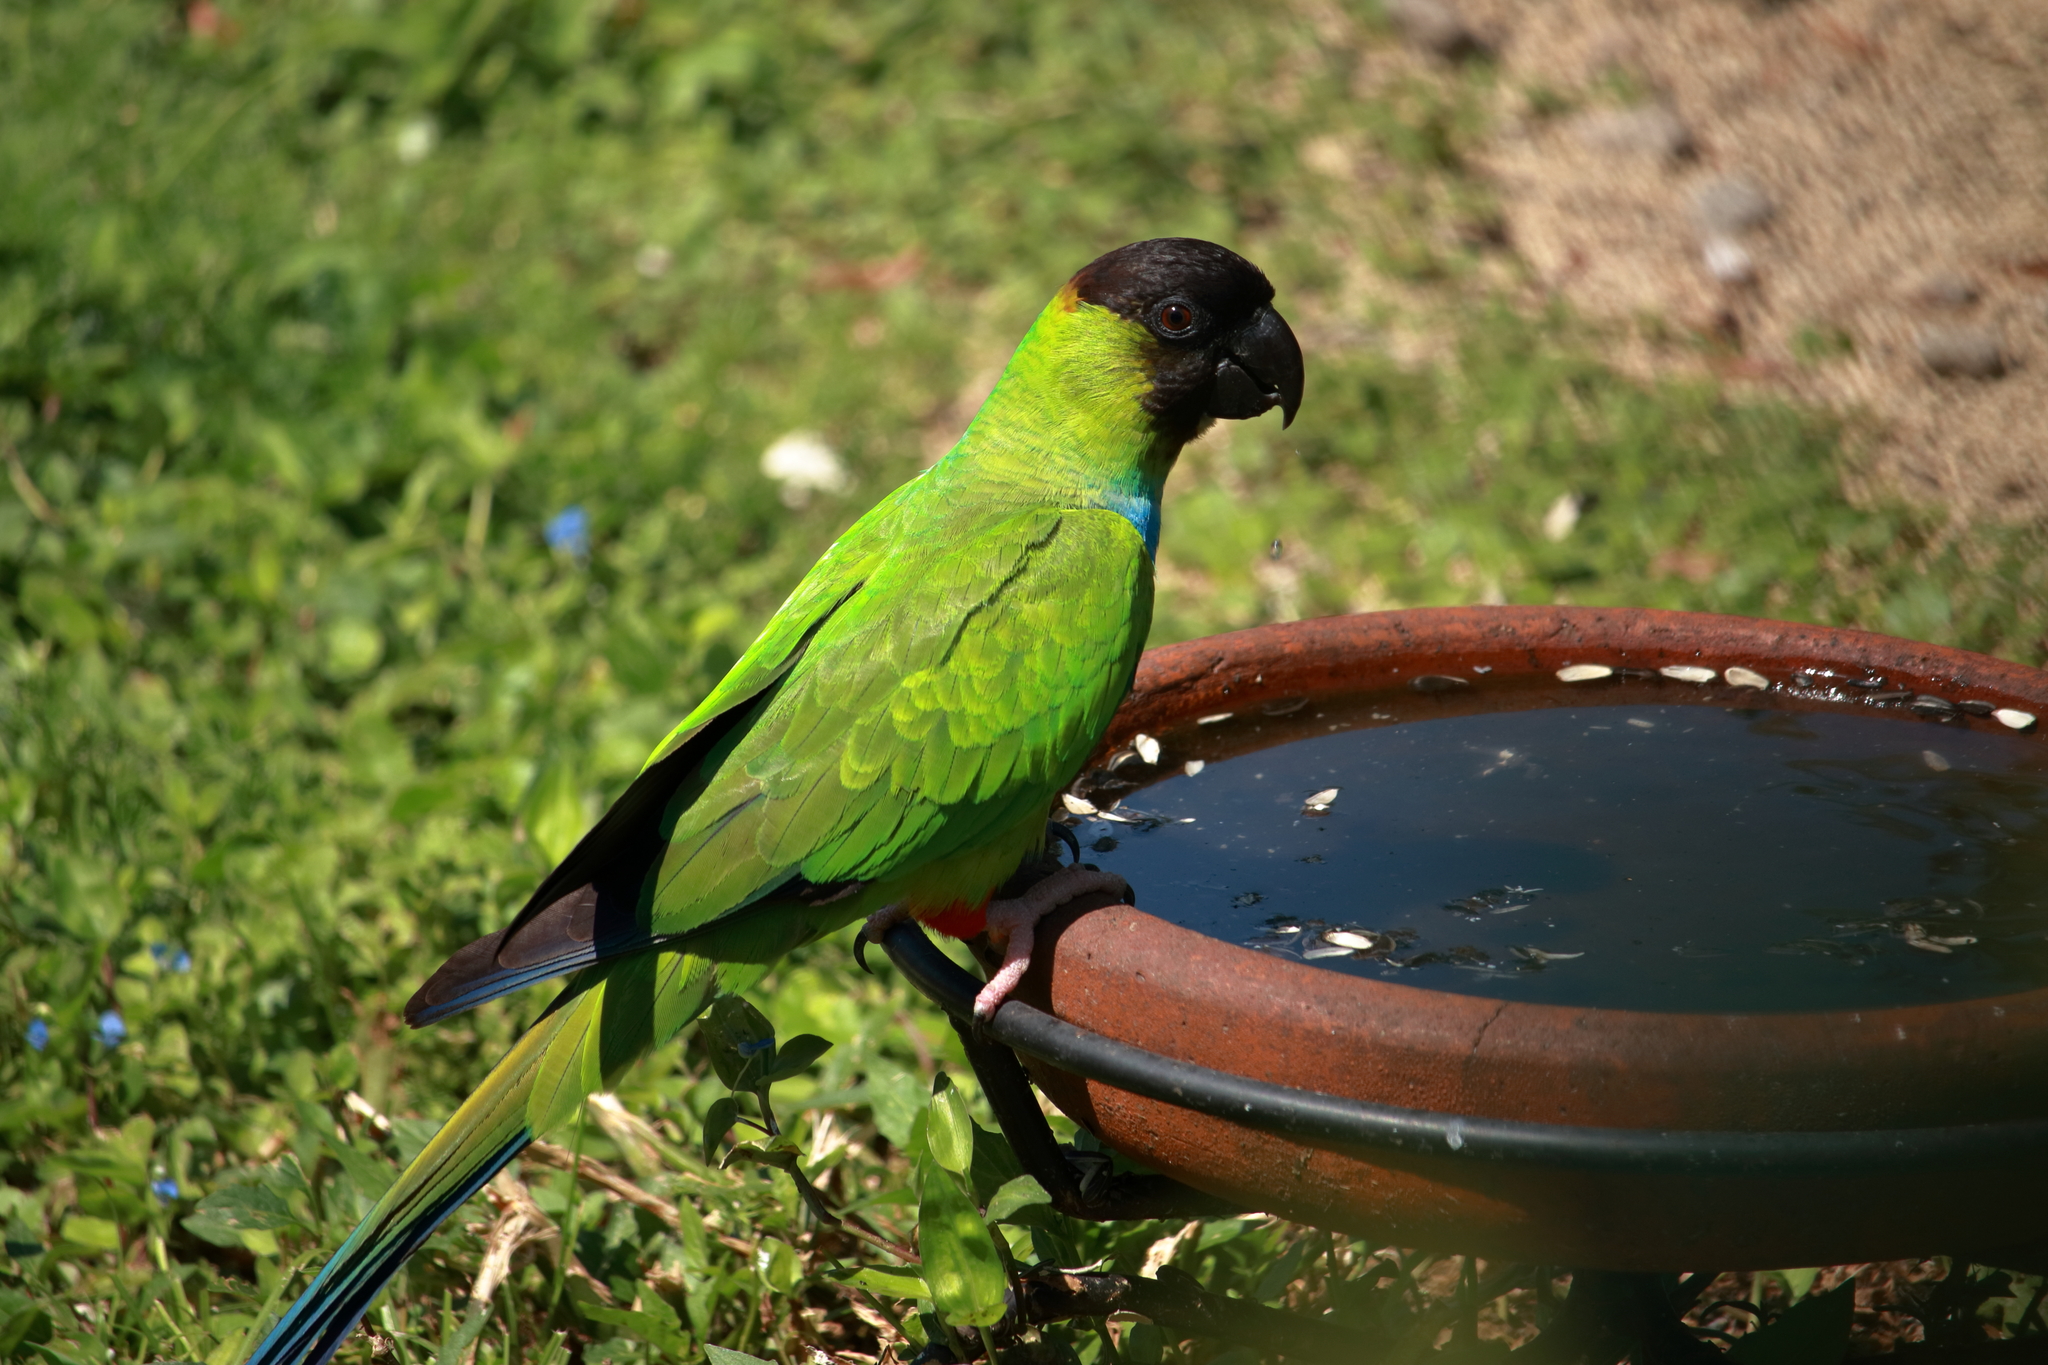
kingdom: Animalia
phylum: Chordata
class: Aves
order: Psittaciformes
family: Psittacidae
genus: Nandayus
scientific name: Nandayus nenday
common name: Nanday parakeet
